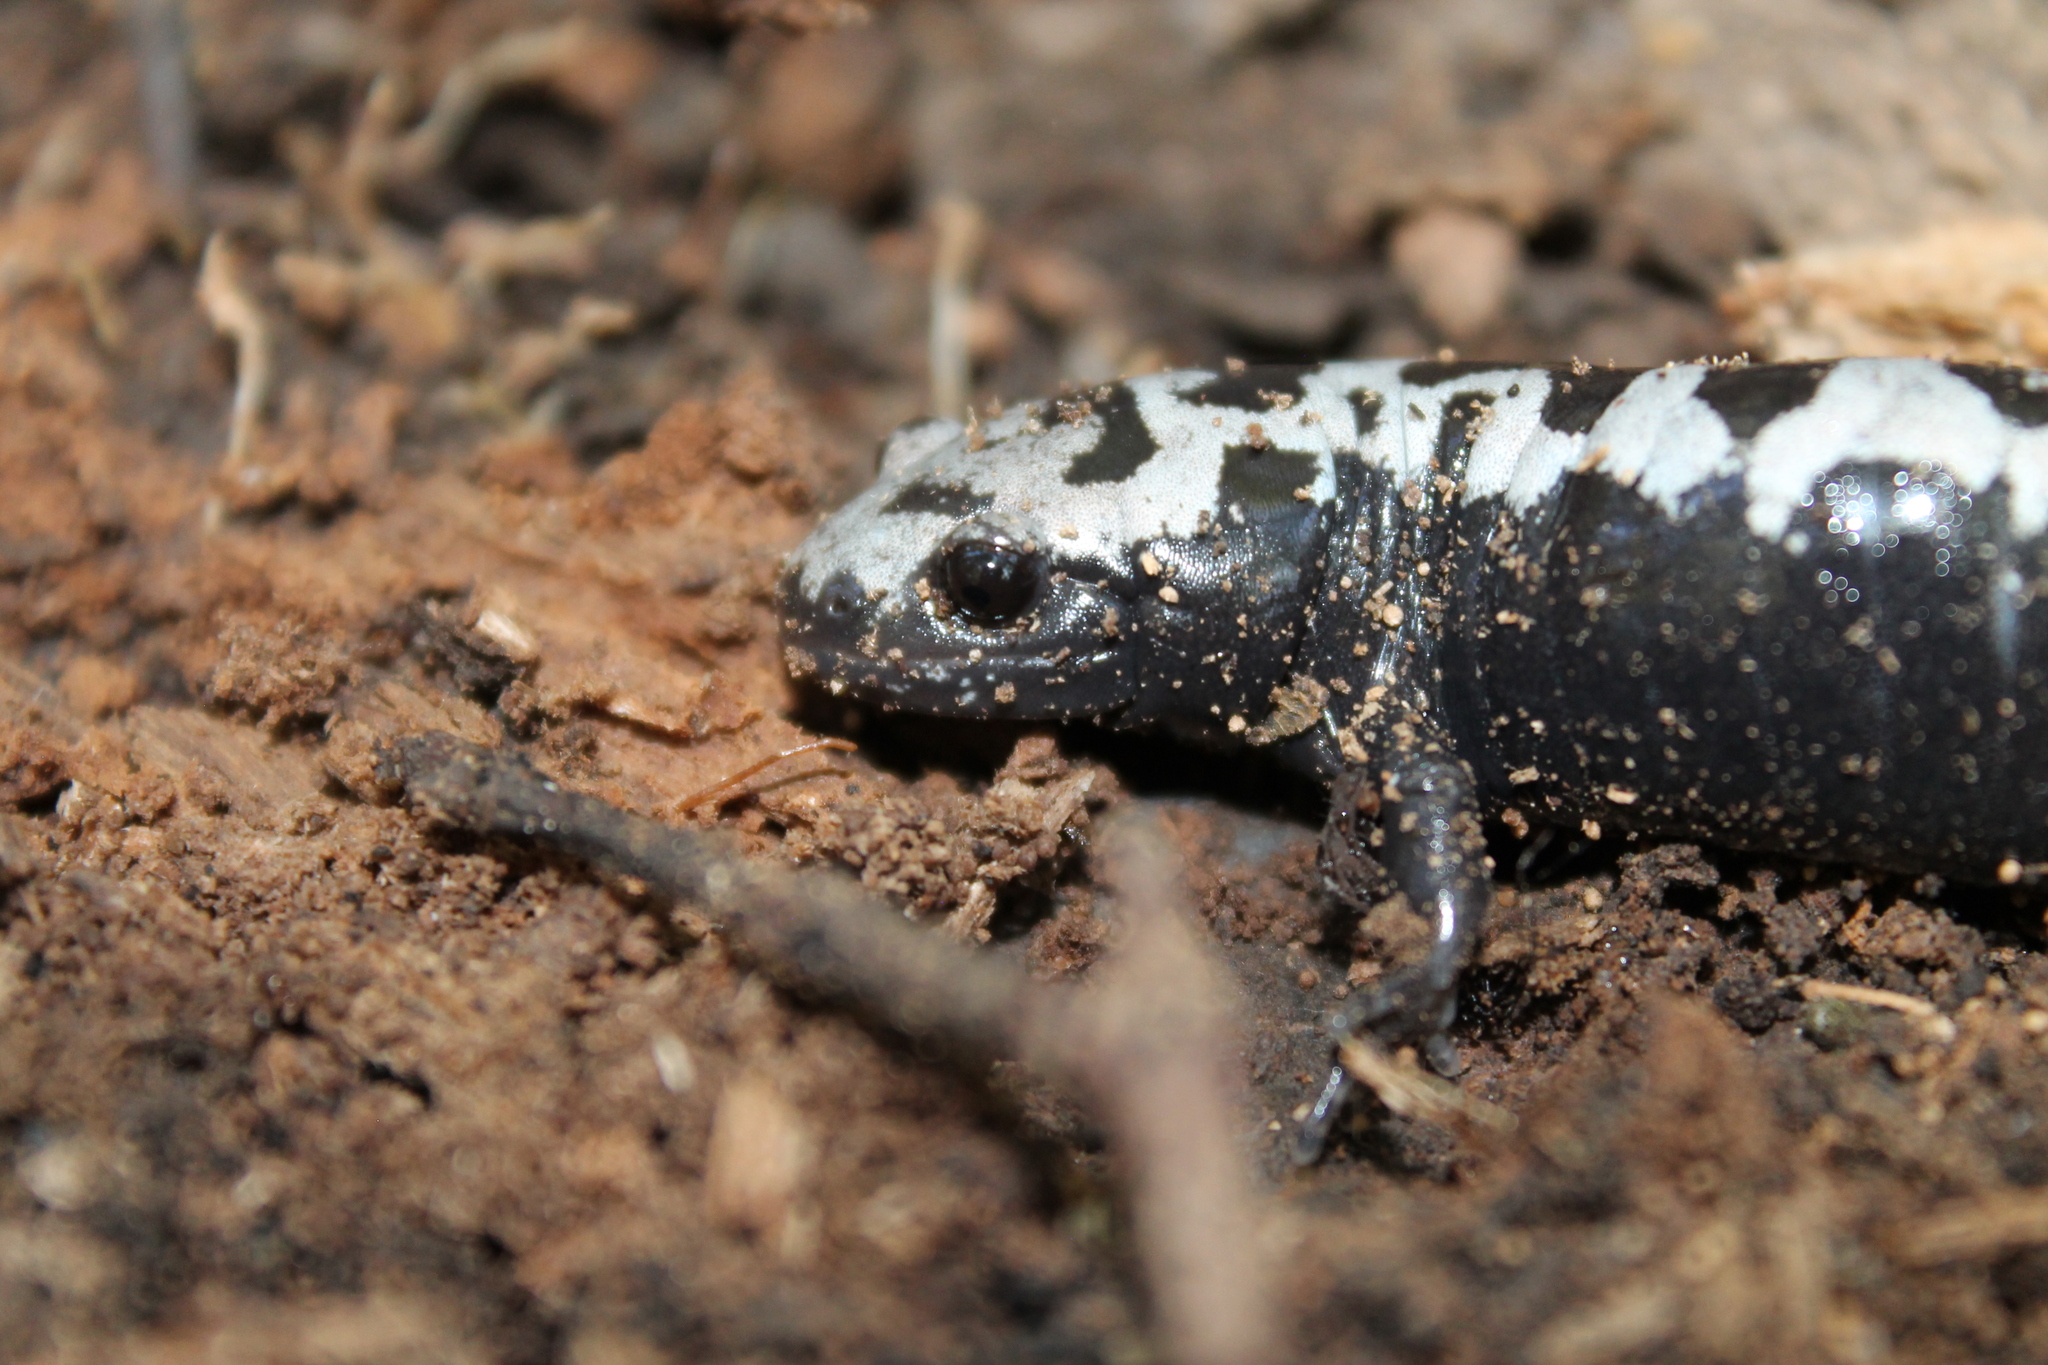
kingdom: Animalia
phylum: Chordata
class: Amphibia
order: Caudata
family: Ambystomatidae
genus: Ambystoma
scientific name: Ambystoma opacum
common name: Marbled salamander
